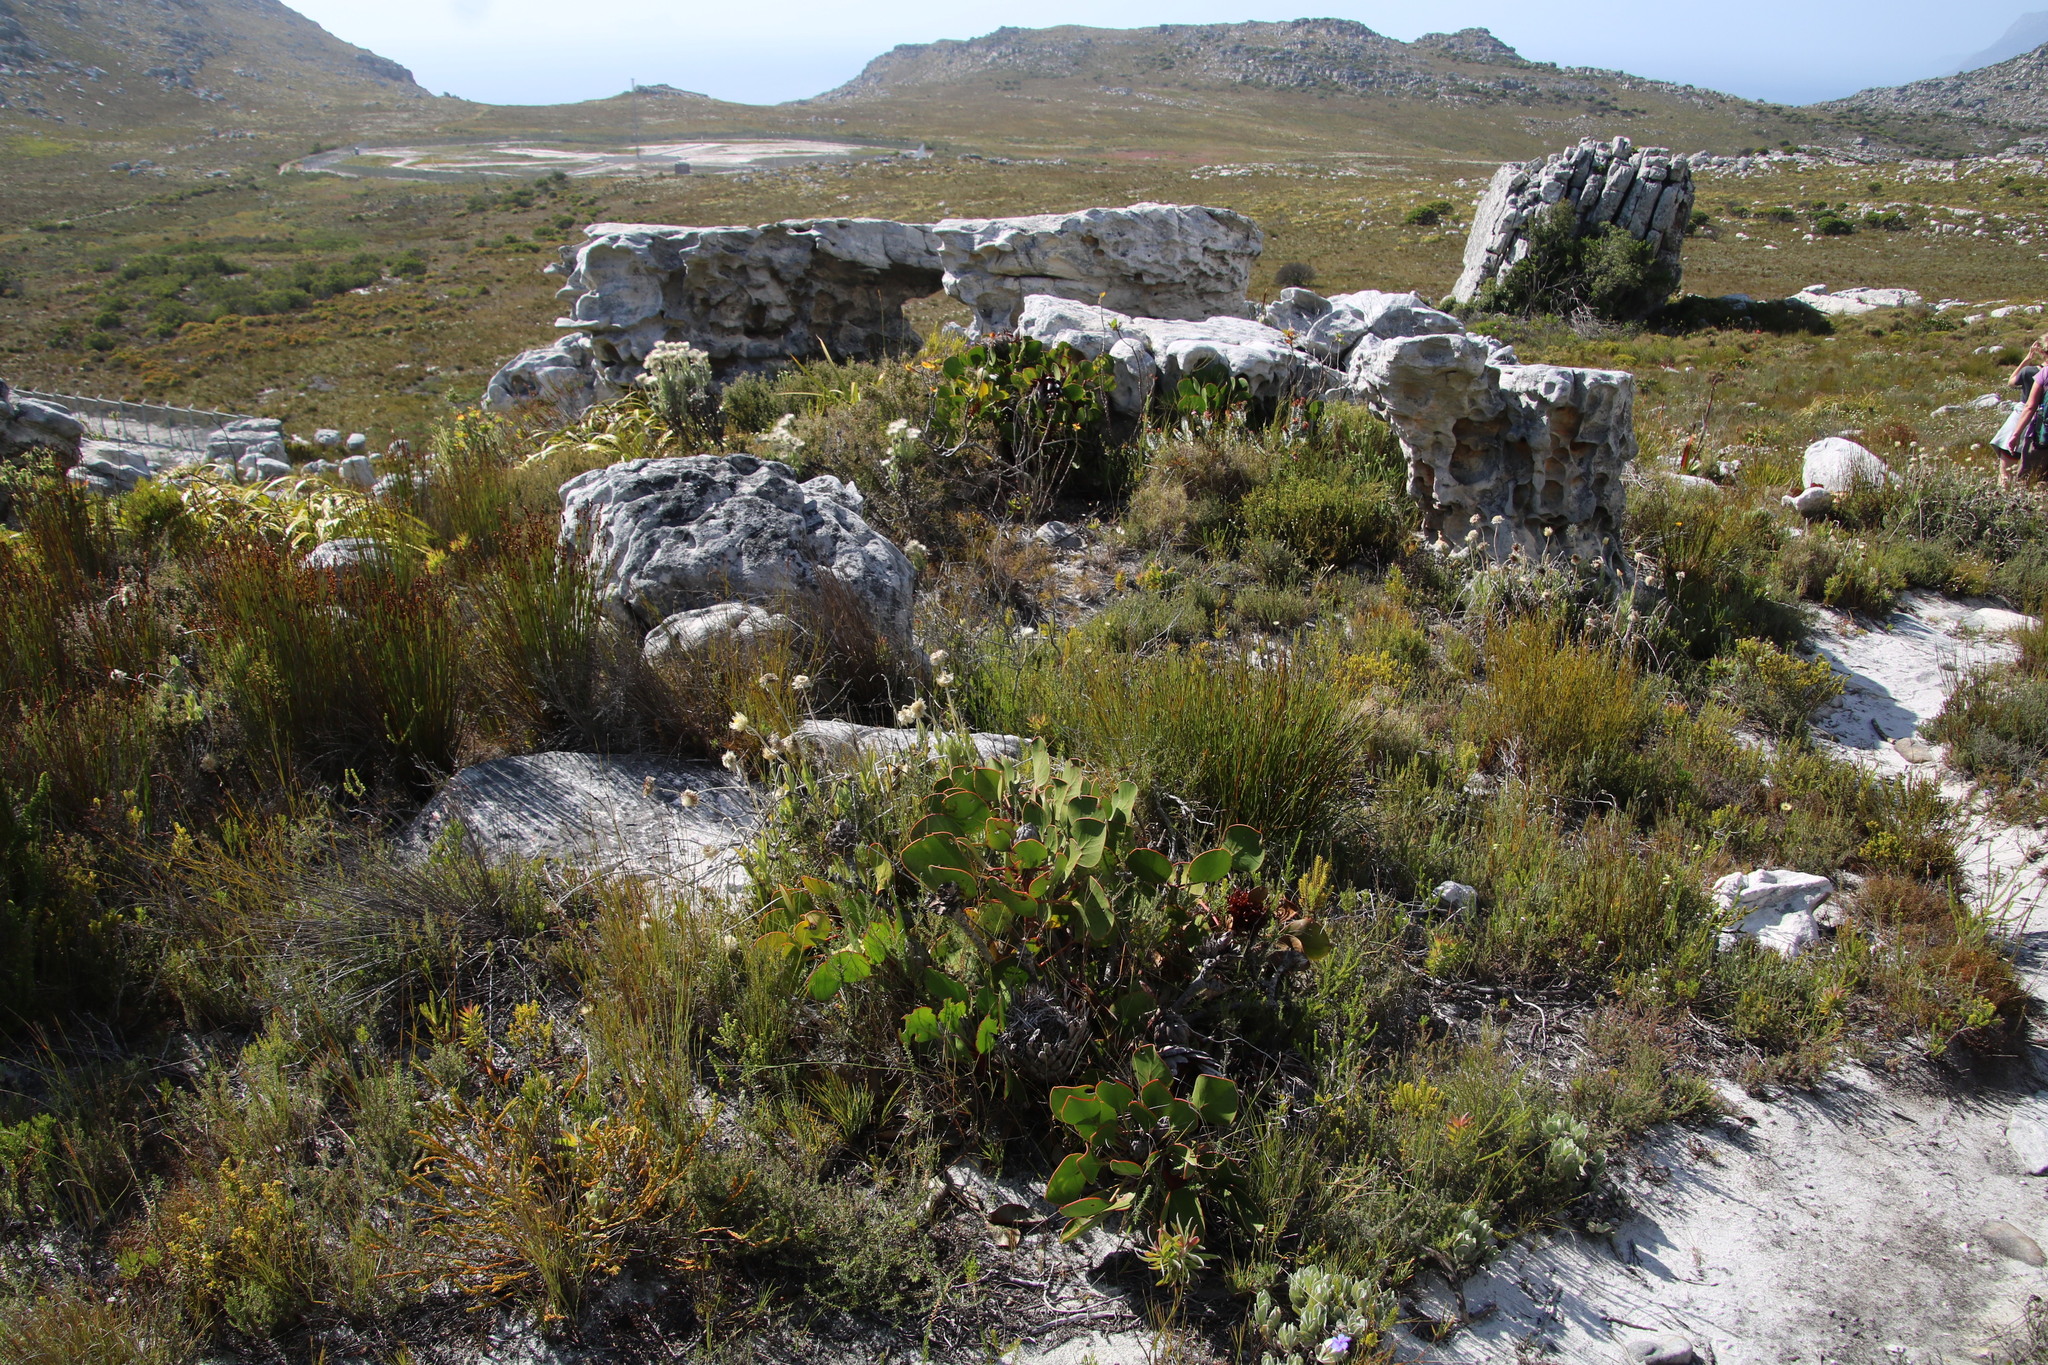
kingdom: Plantae
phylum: Tracheophyta
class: Magnoliopsida
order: Proteales
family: Proteaceae
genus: Protea
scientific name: Protea cynaroides
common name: King protea
